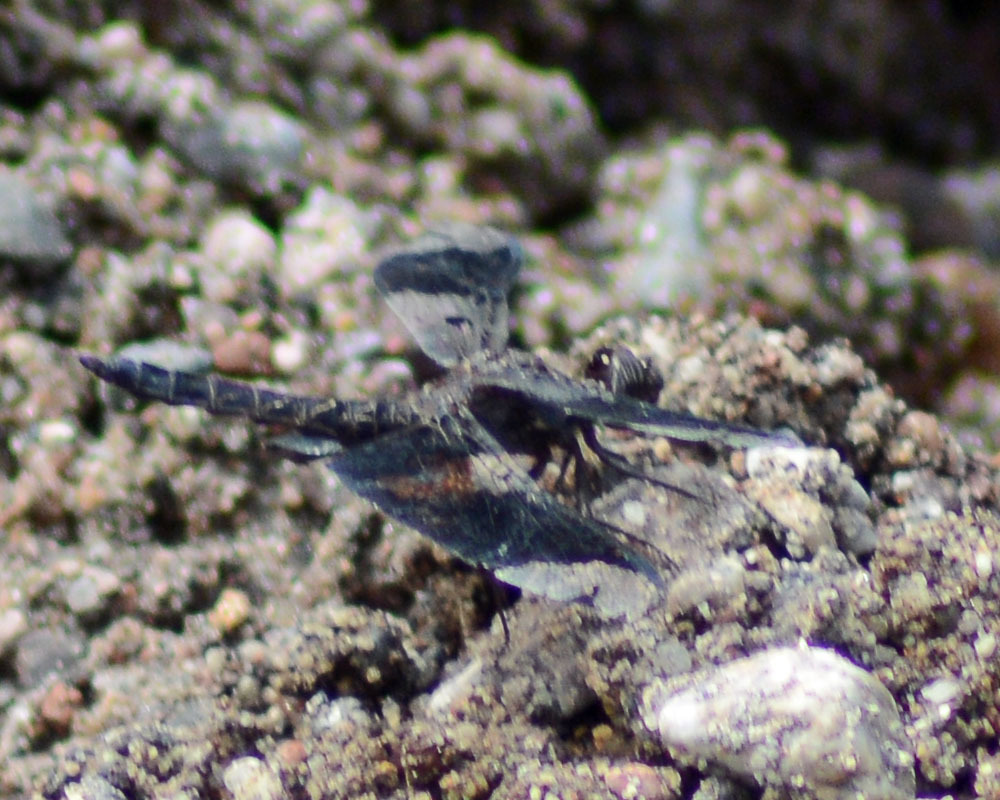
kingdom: Animalia
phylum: Arthropoda
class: Insecta
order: Odonata
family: Libellulidae
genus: Pseudoleon
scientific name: Pseudoleon superbus
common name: Filigree skimmer
